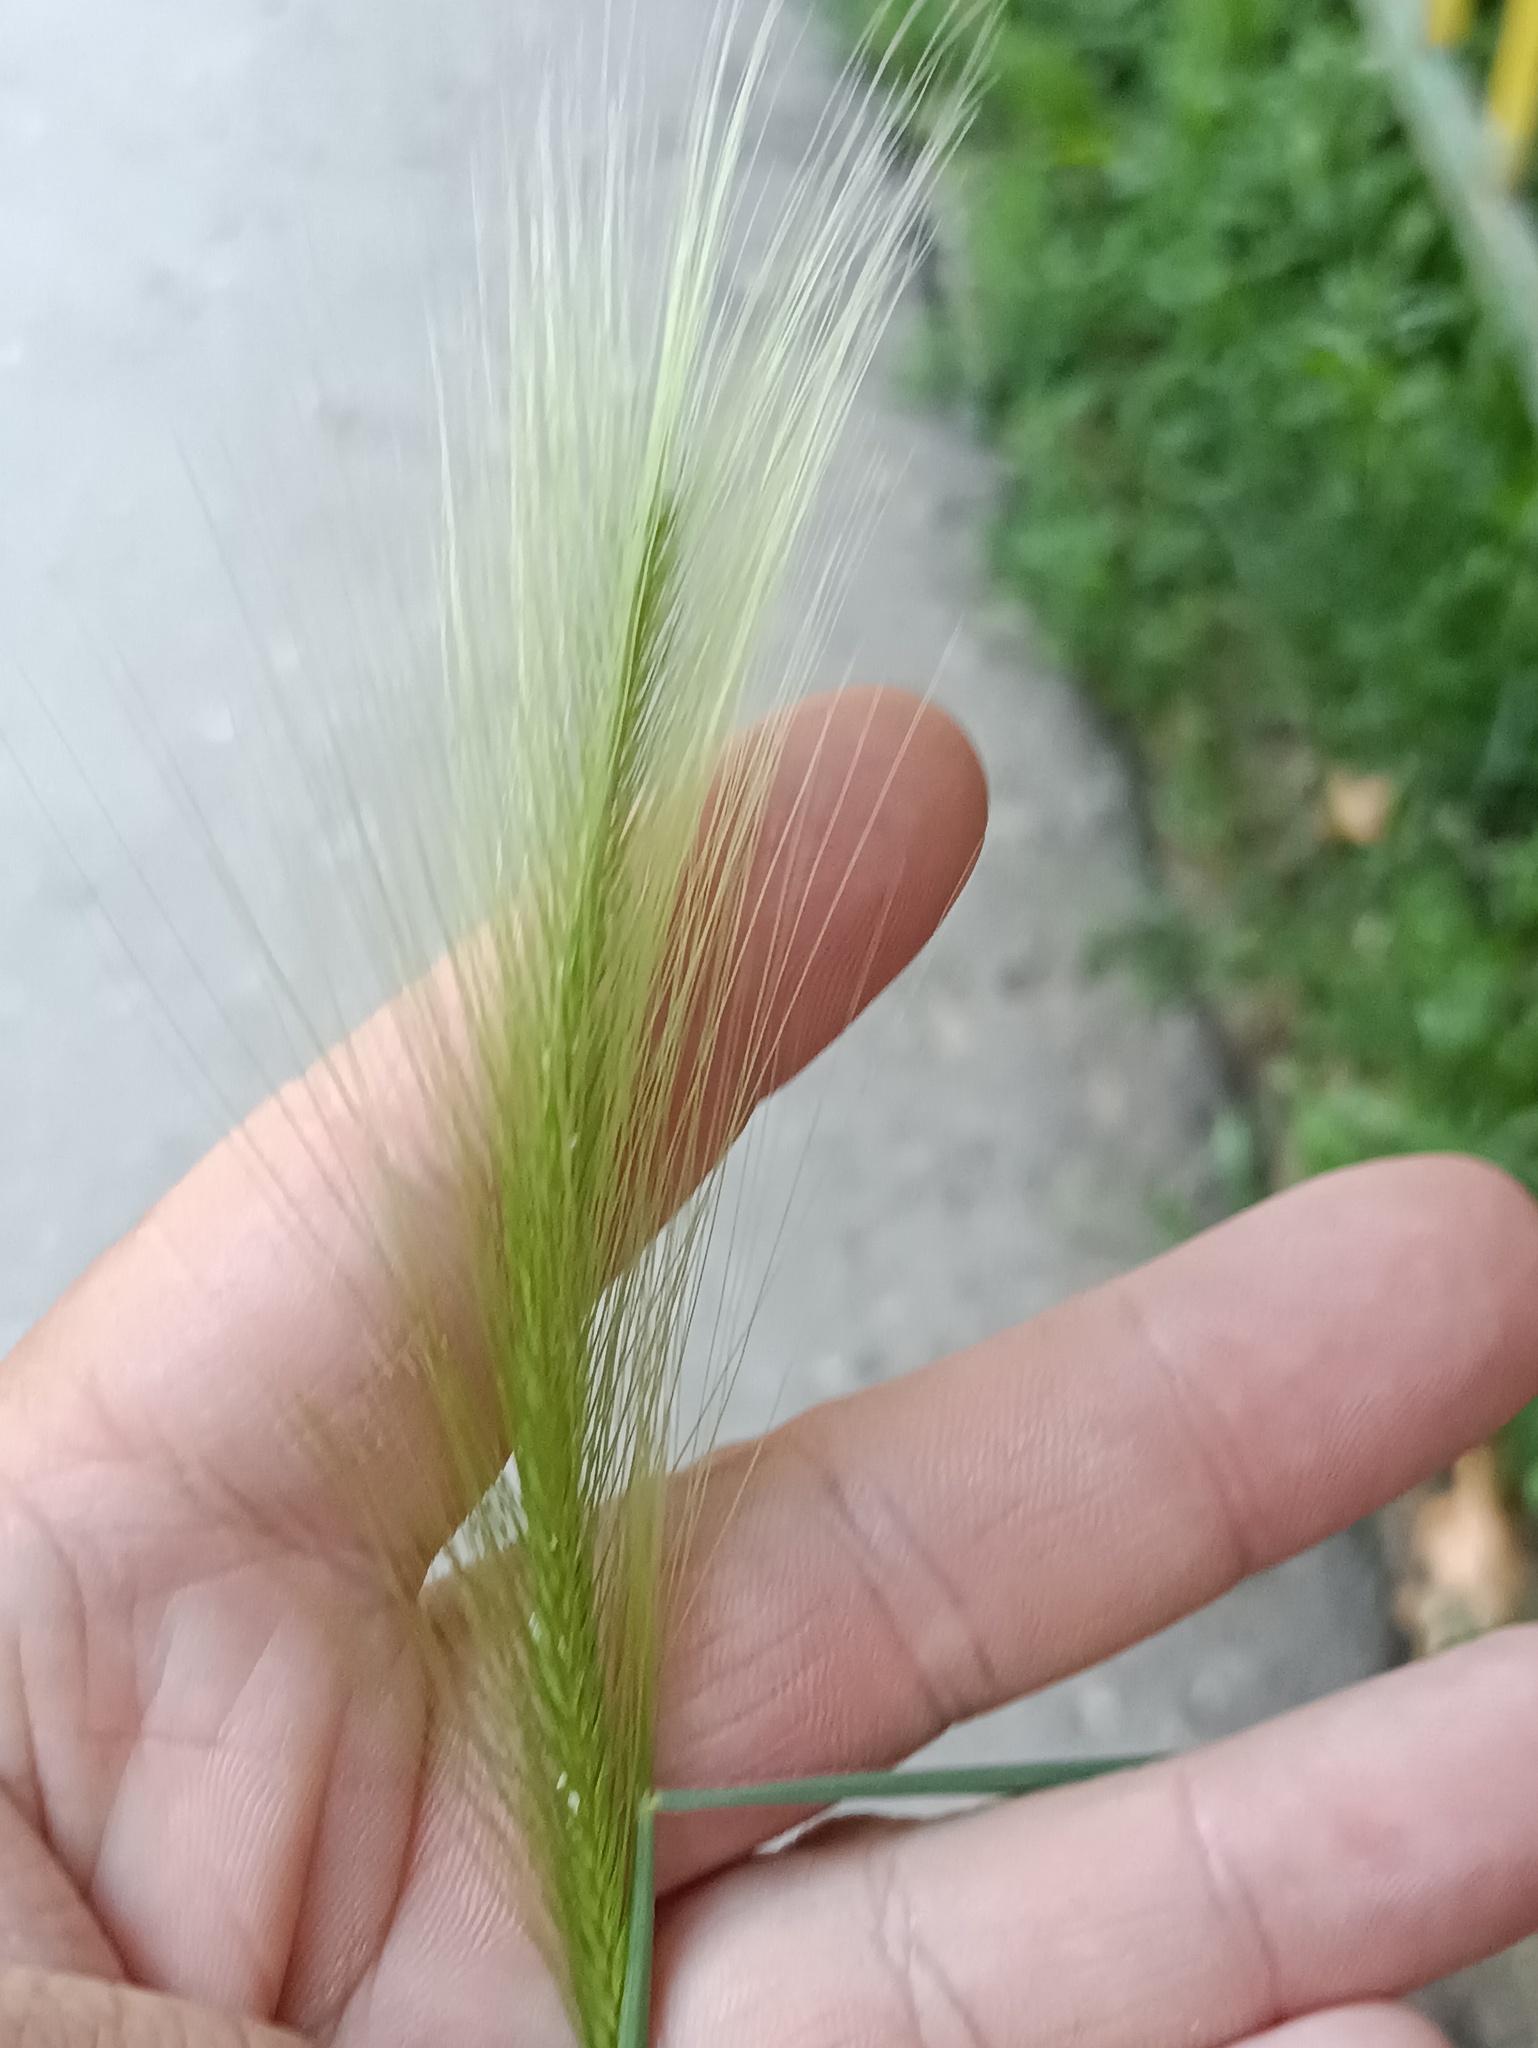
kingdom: Plantae
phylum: Tracheophyta
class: Liliopsida
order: Poales
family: Poaceae
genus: Hordeum
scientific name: Hordeum jubatum
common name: Foxtail barley
